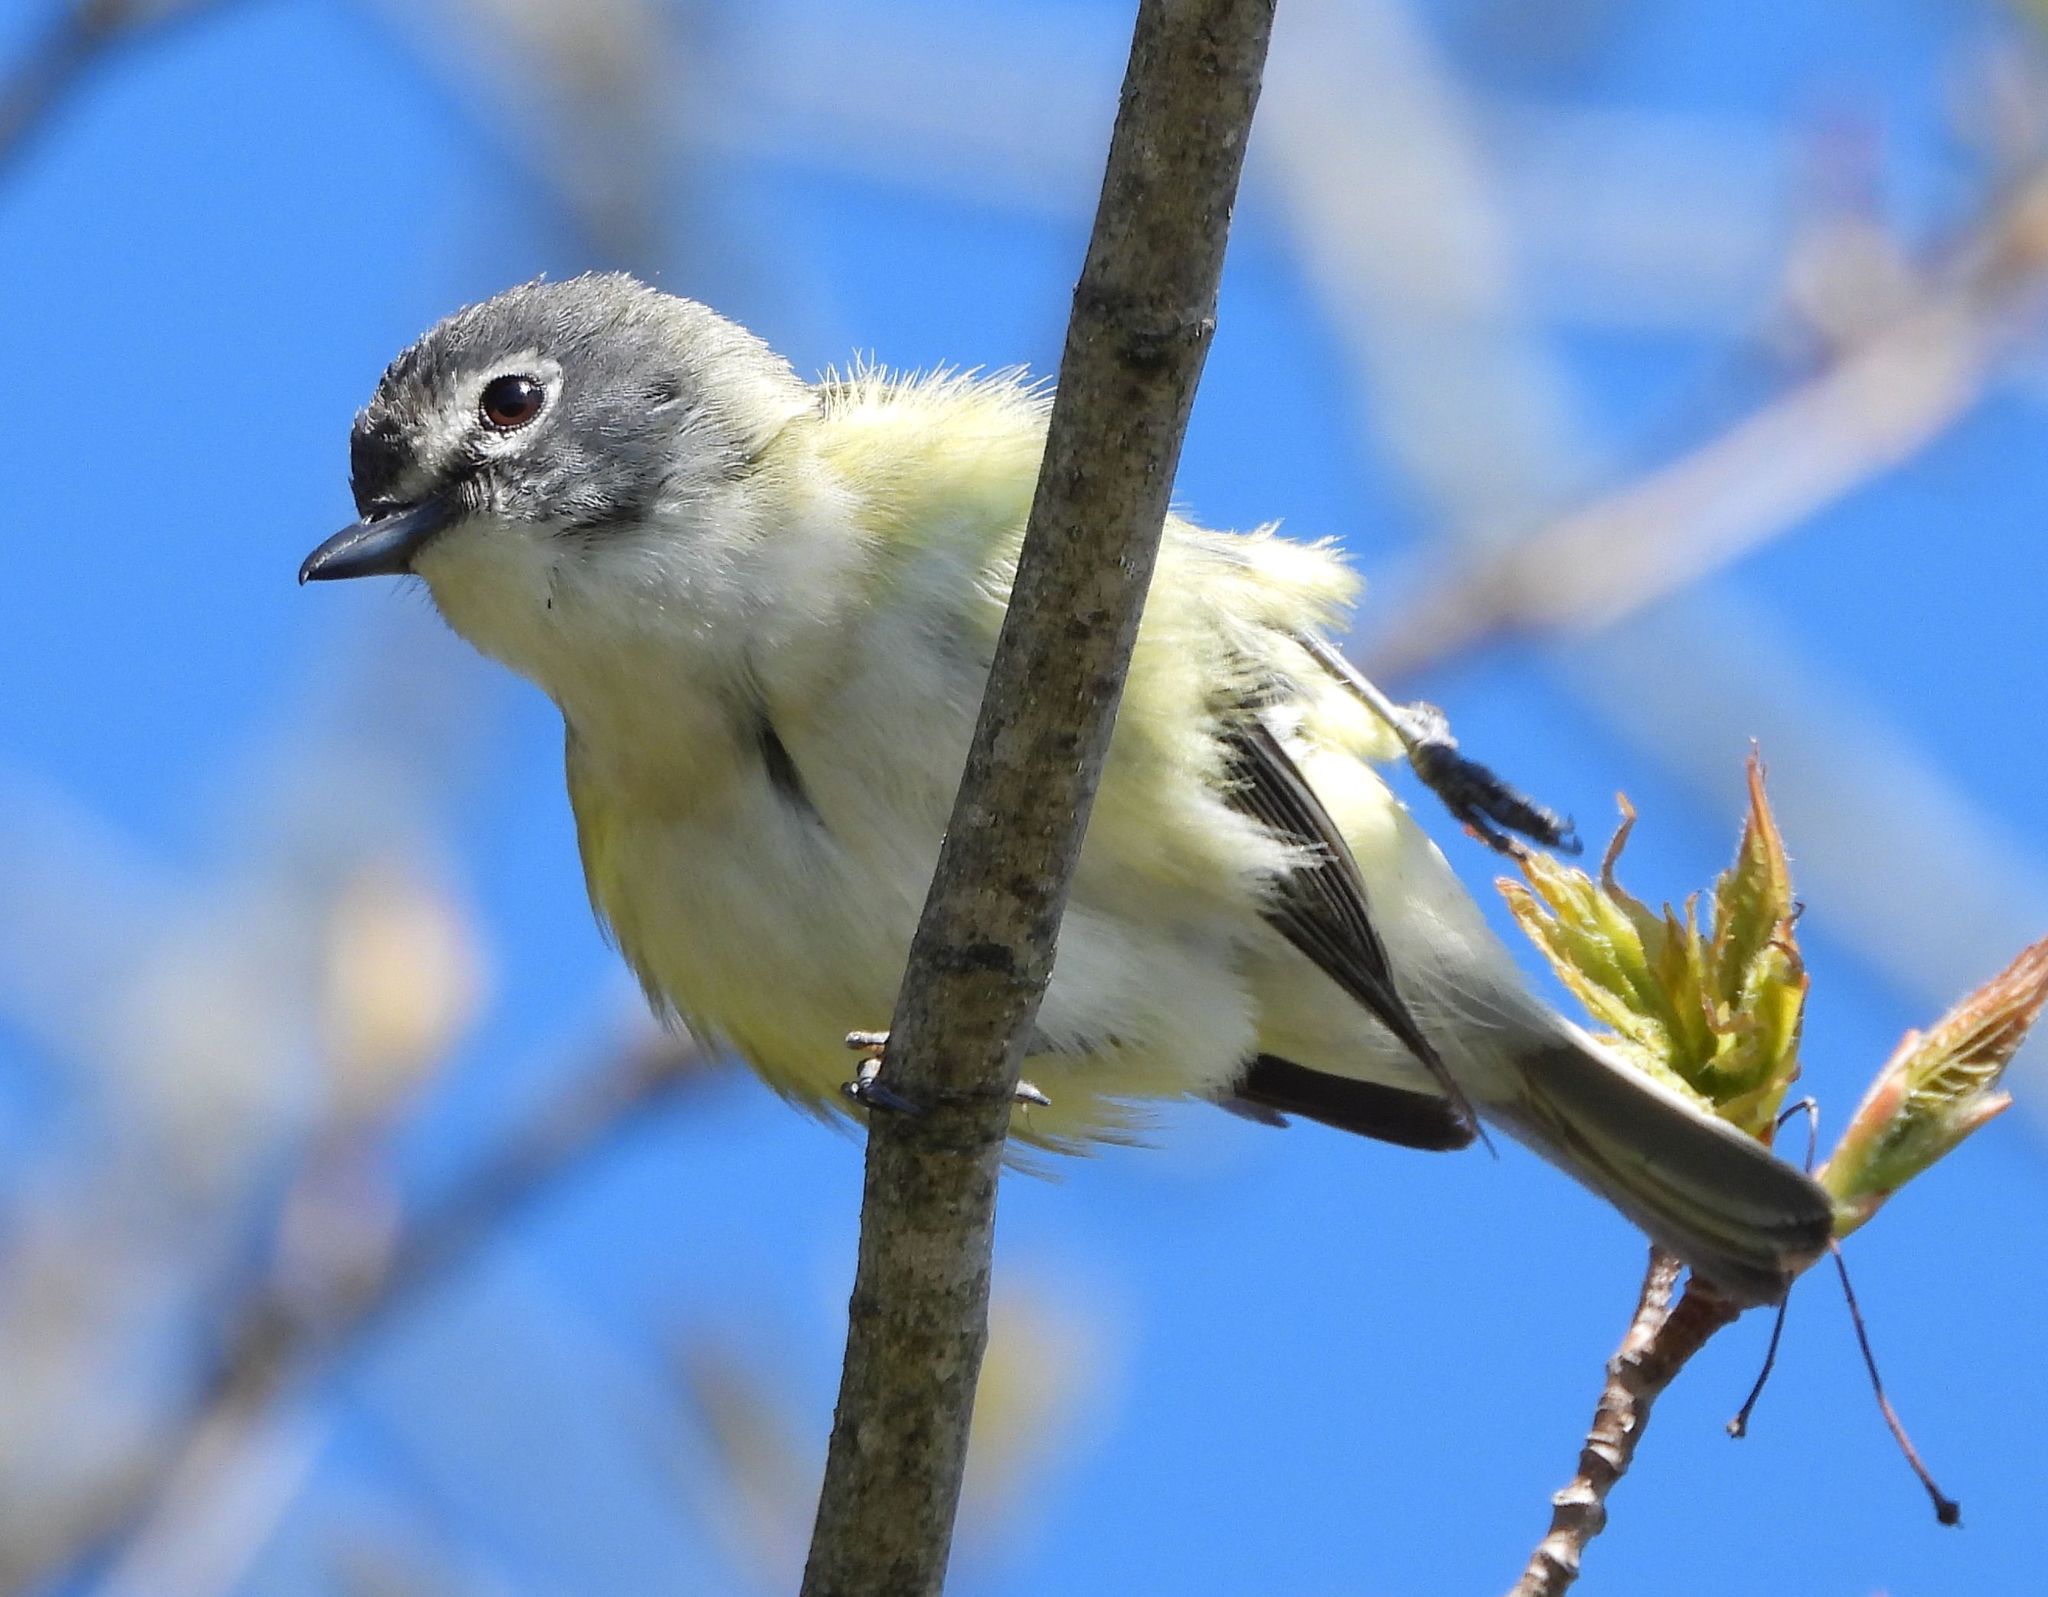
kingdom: Animalia
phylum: Chordata
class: Aves
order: Passeriformes
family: Vireonidae
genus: Vireo
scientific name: Vireo solitarius
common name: Blue-headed vireo
